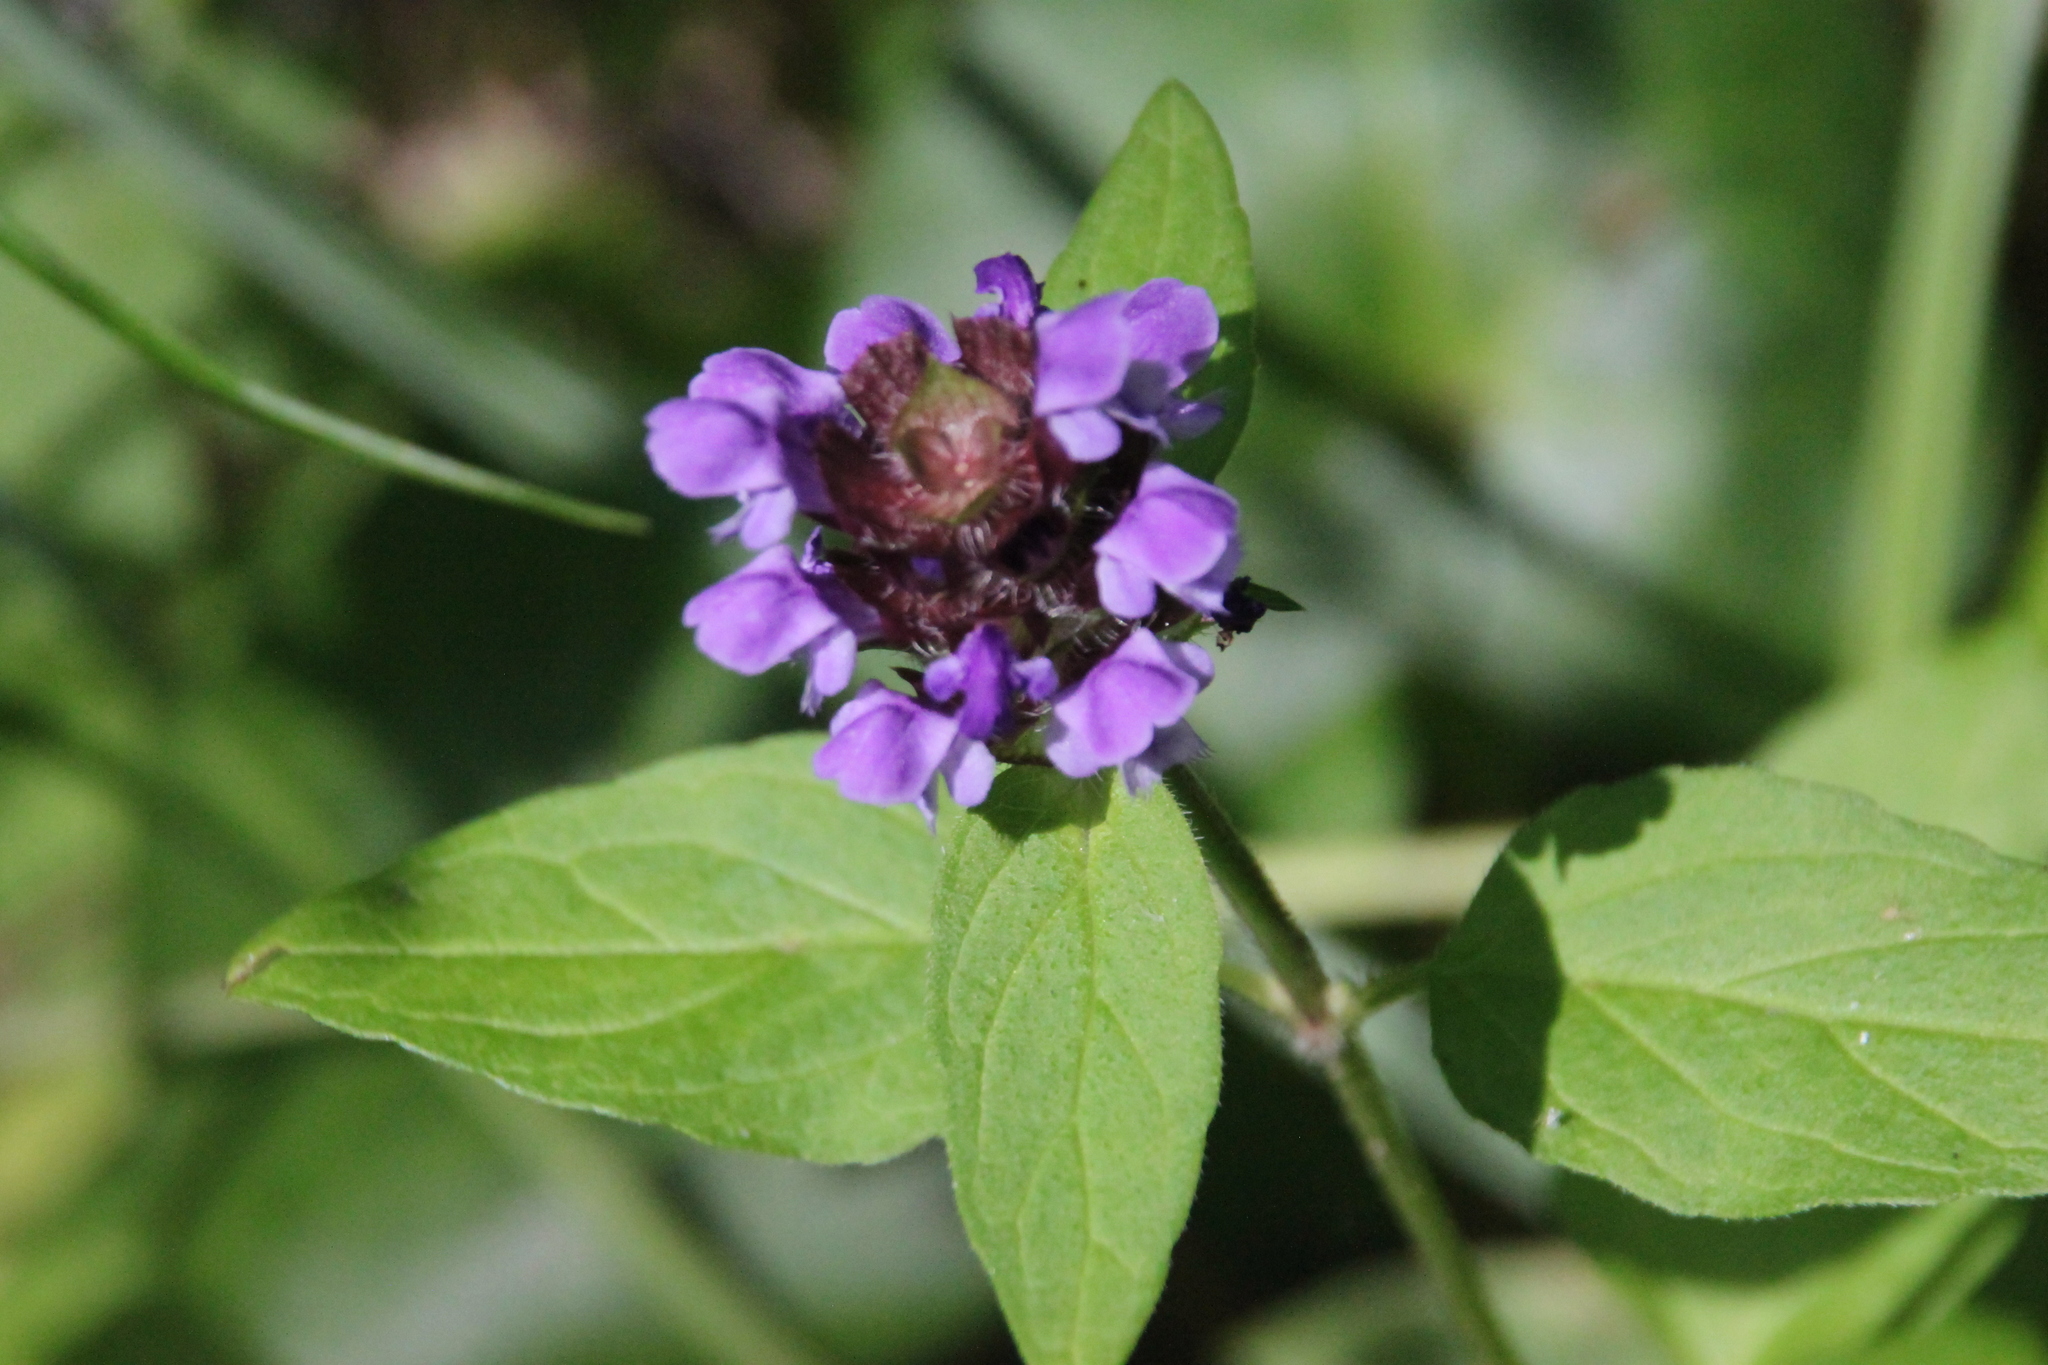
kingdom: Plantae
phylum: Tracheophyta
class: Magnoliopsida
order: Lamiales
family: Lamiaceae
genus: Prunella
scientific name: Prunella vulgaris
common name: Heal-all
